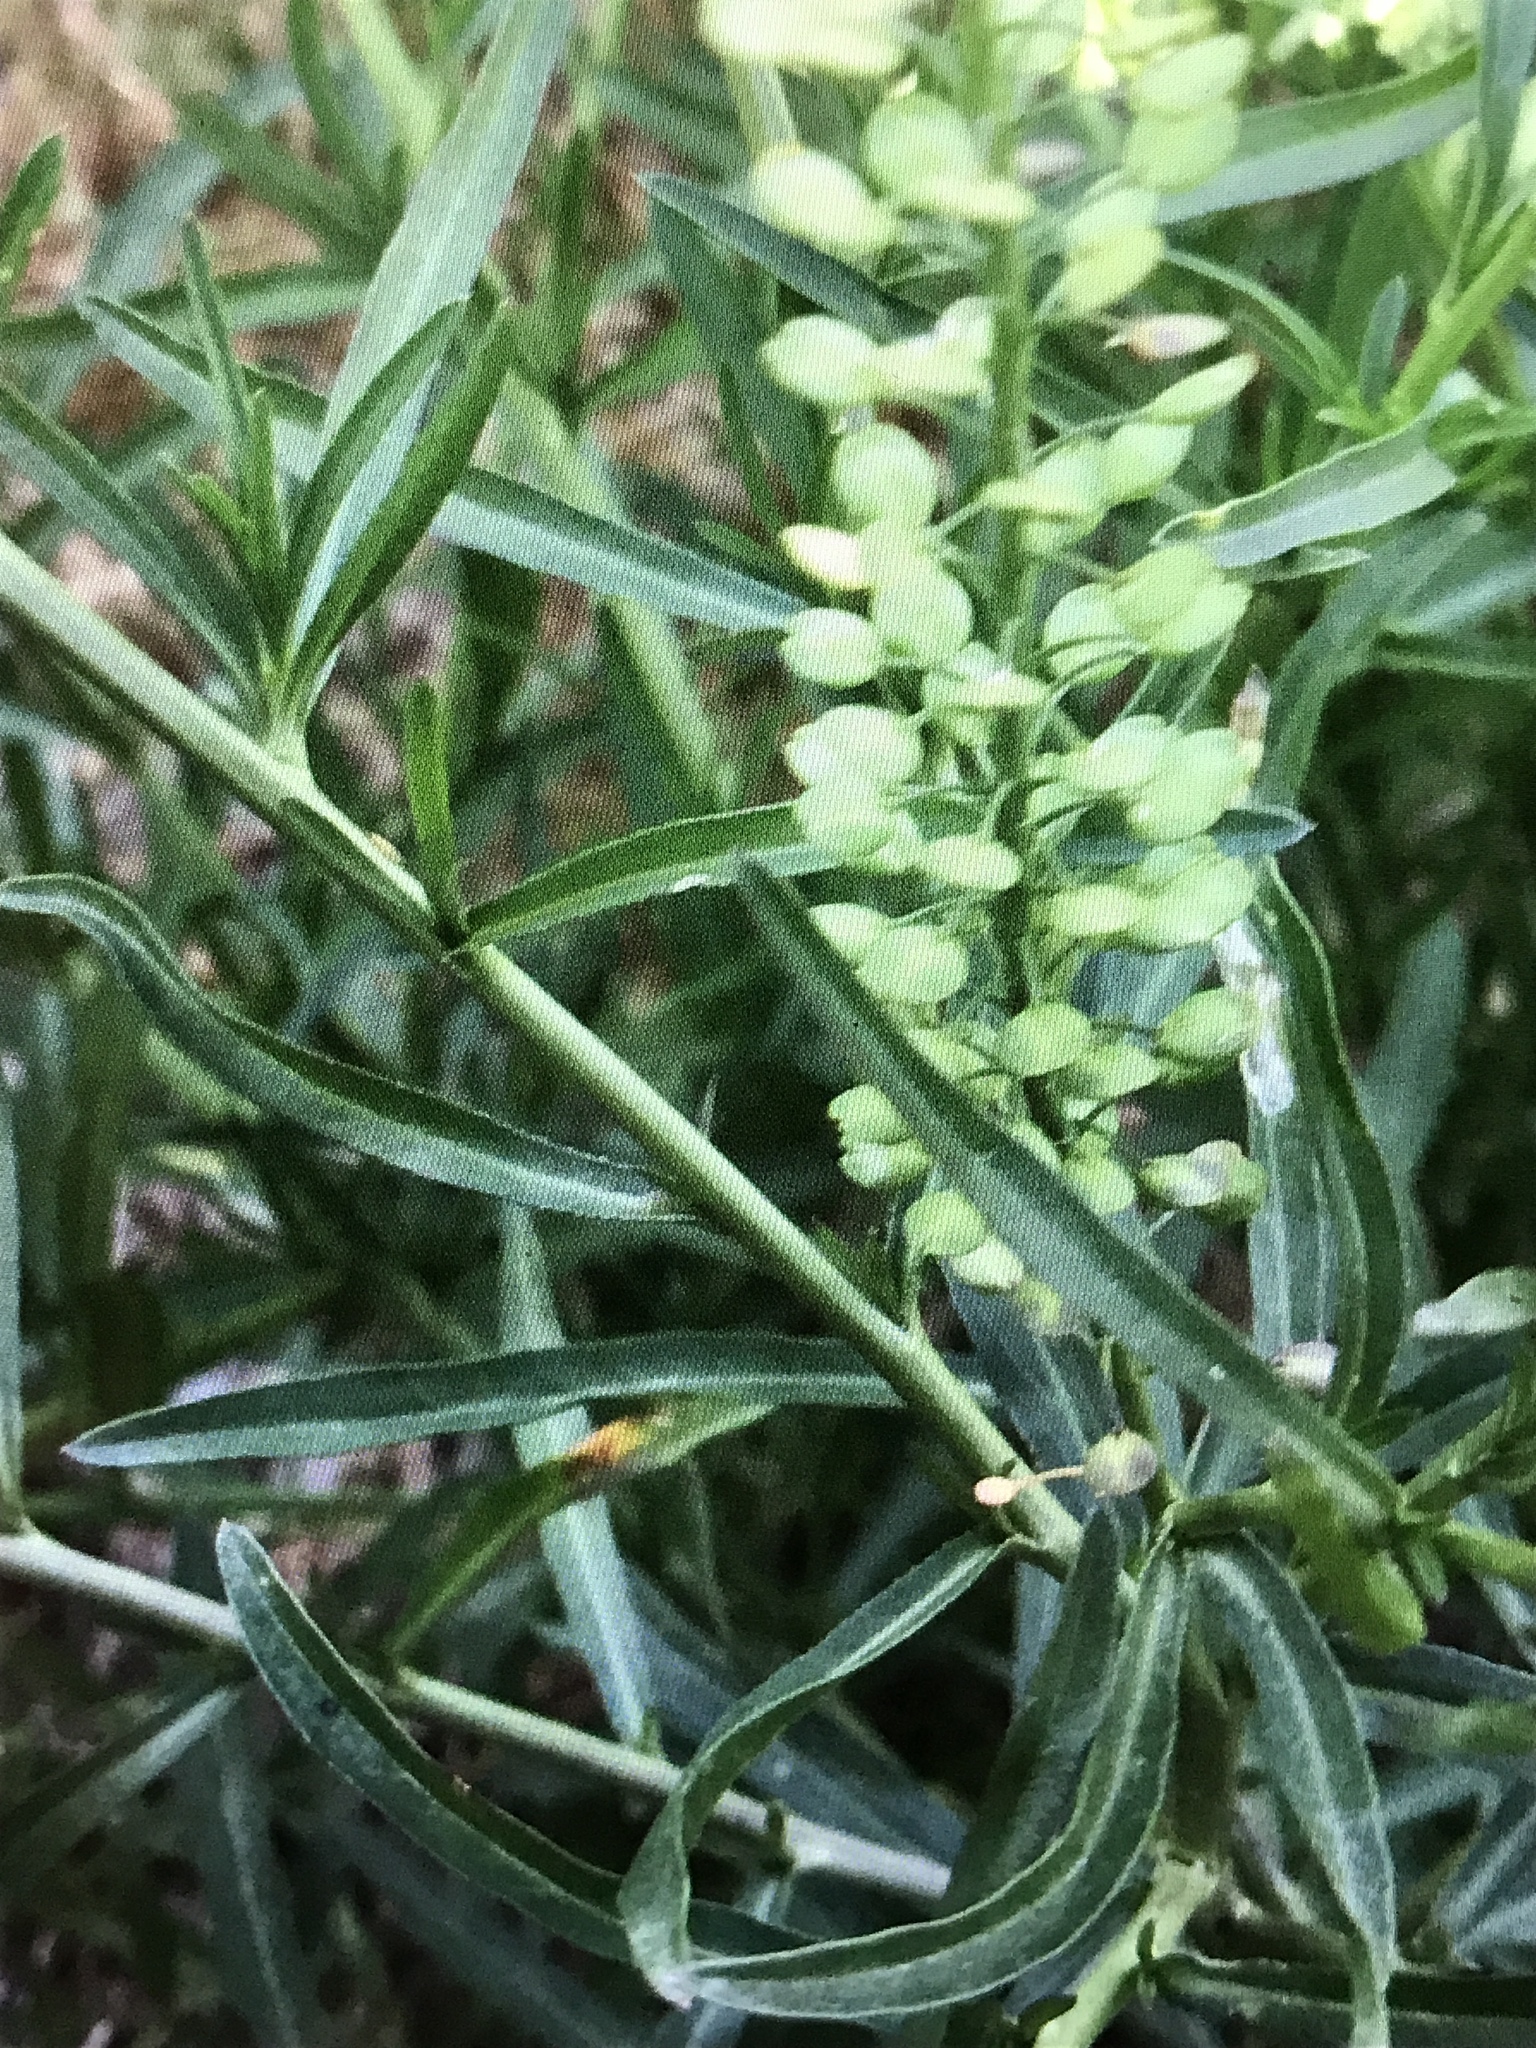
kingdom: Plantae
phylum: Tracheophyta
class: Magnoliopsida
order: Brassicales
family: Brassicaceae
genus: Lepidium
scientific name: Lepidium virginicum
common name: Least pepperwort
